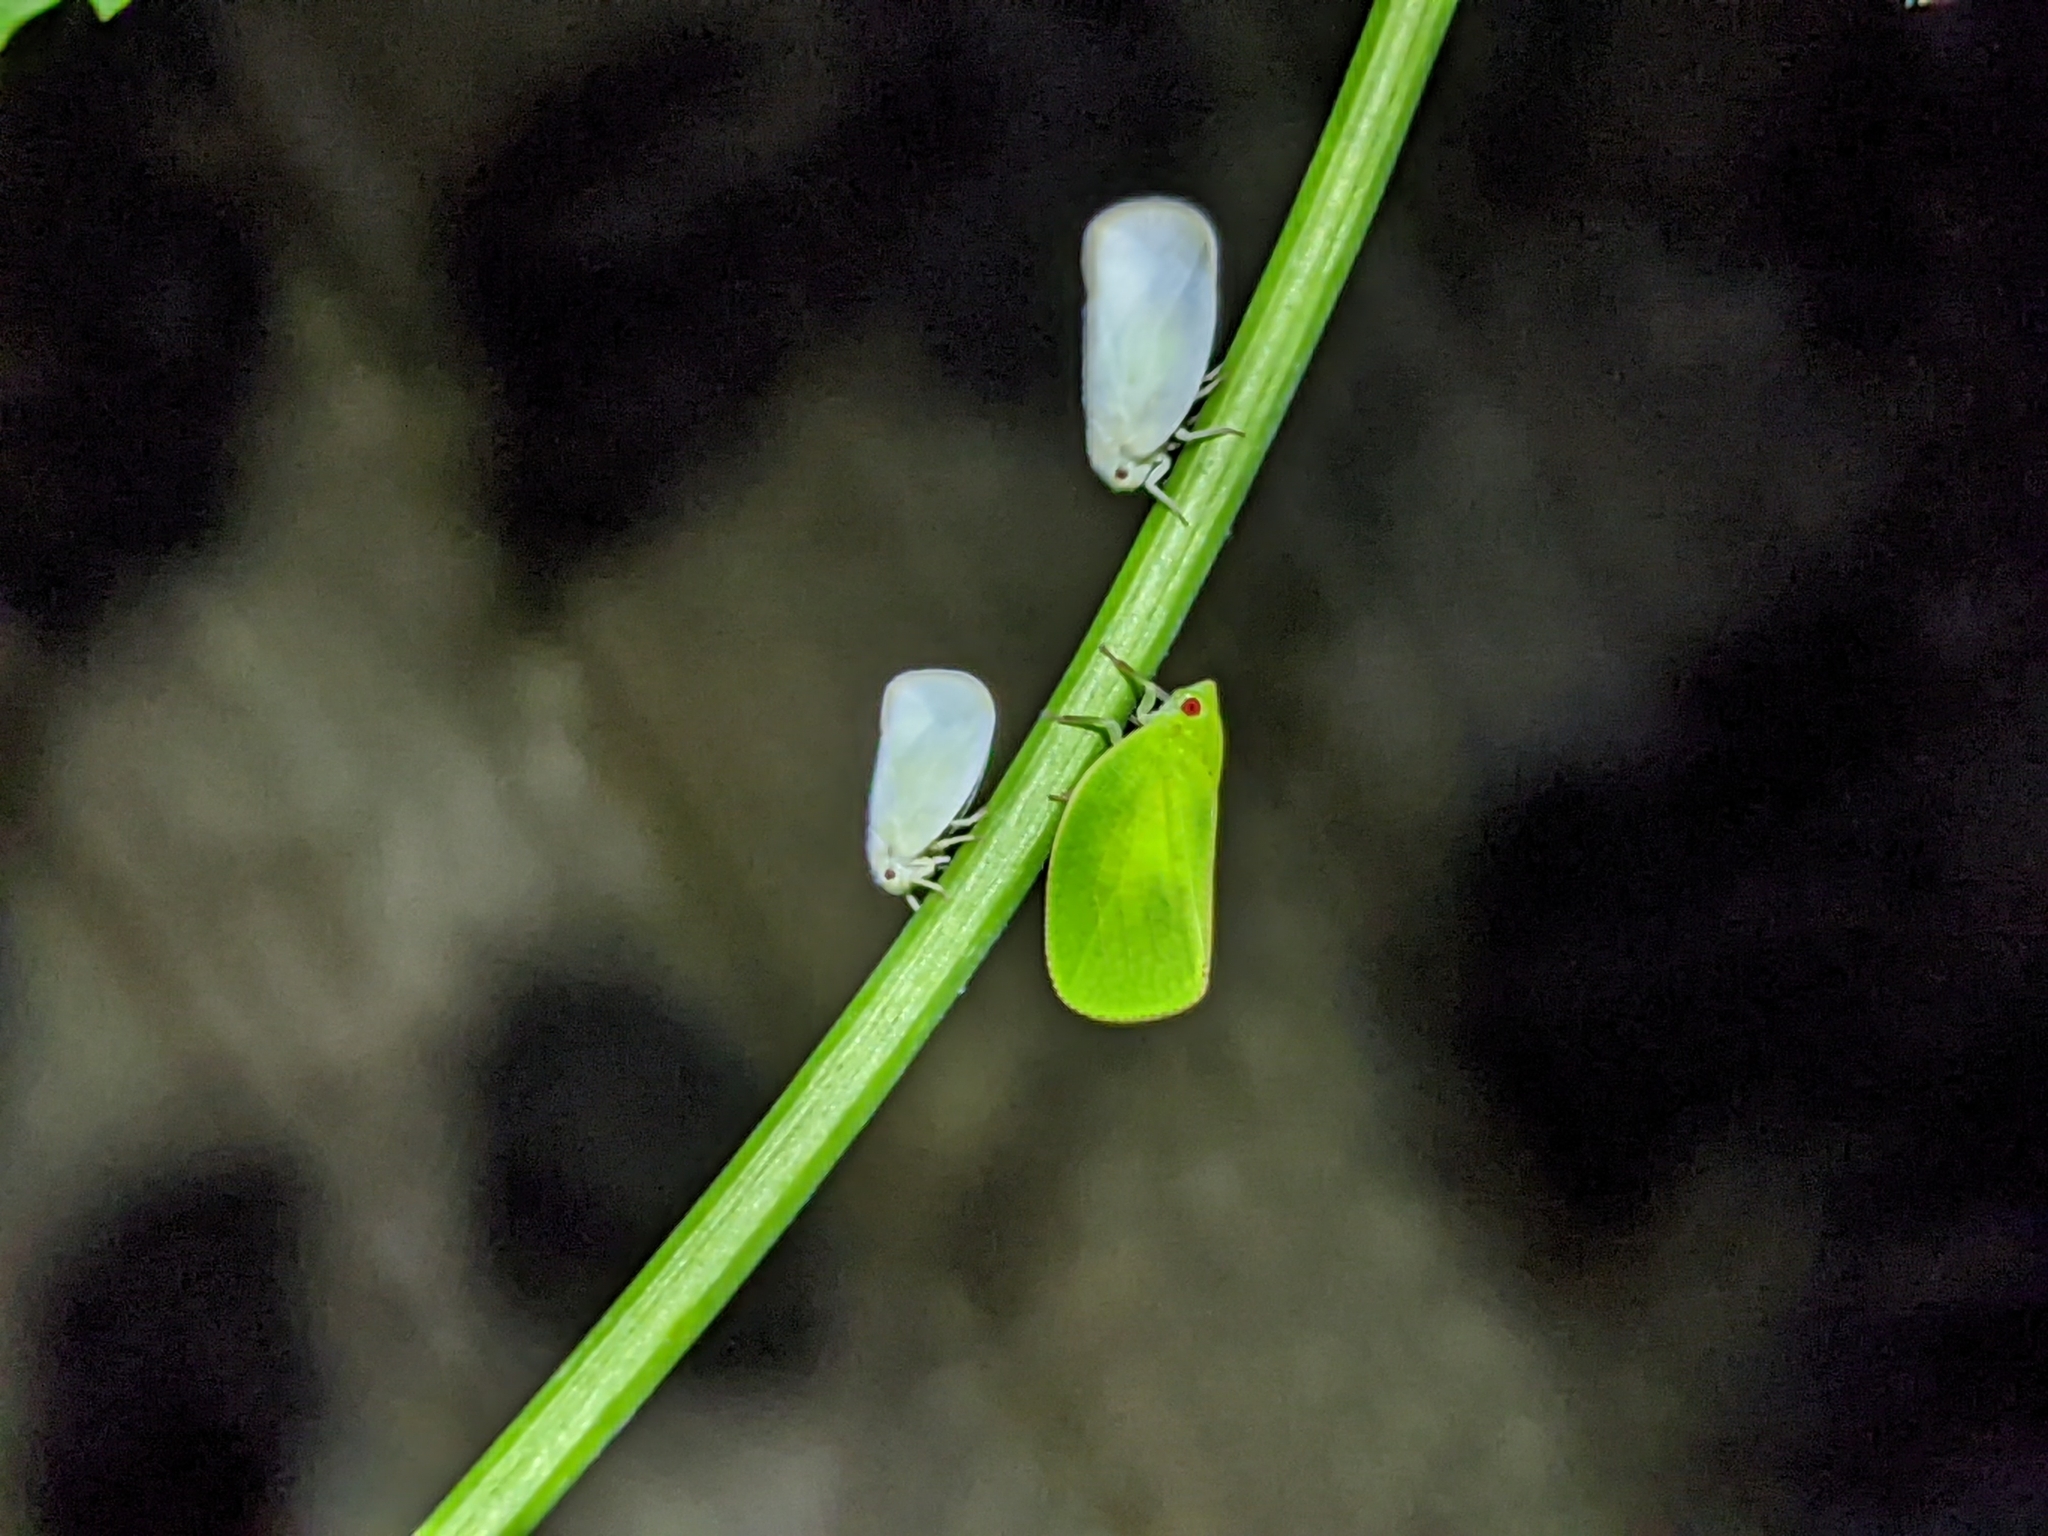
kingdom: Animalia
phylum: Arthropoda
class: Insecta
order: Hemiptera
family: Acanaloniidae
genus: Acanalonia
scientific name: Acanalonia conica
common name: Green cone-headed planthopper
